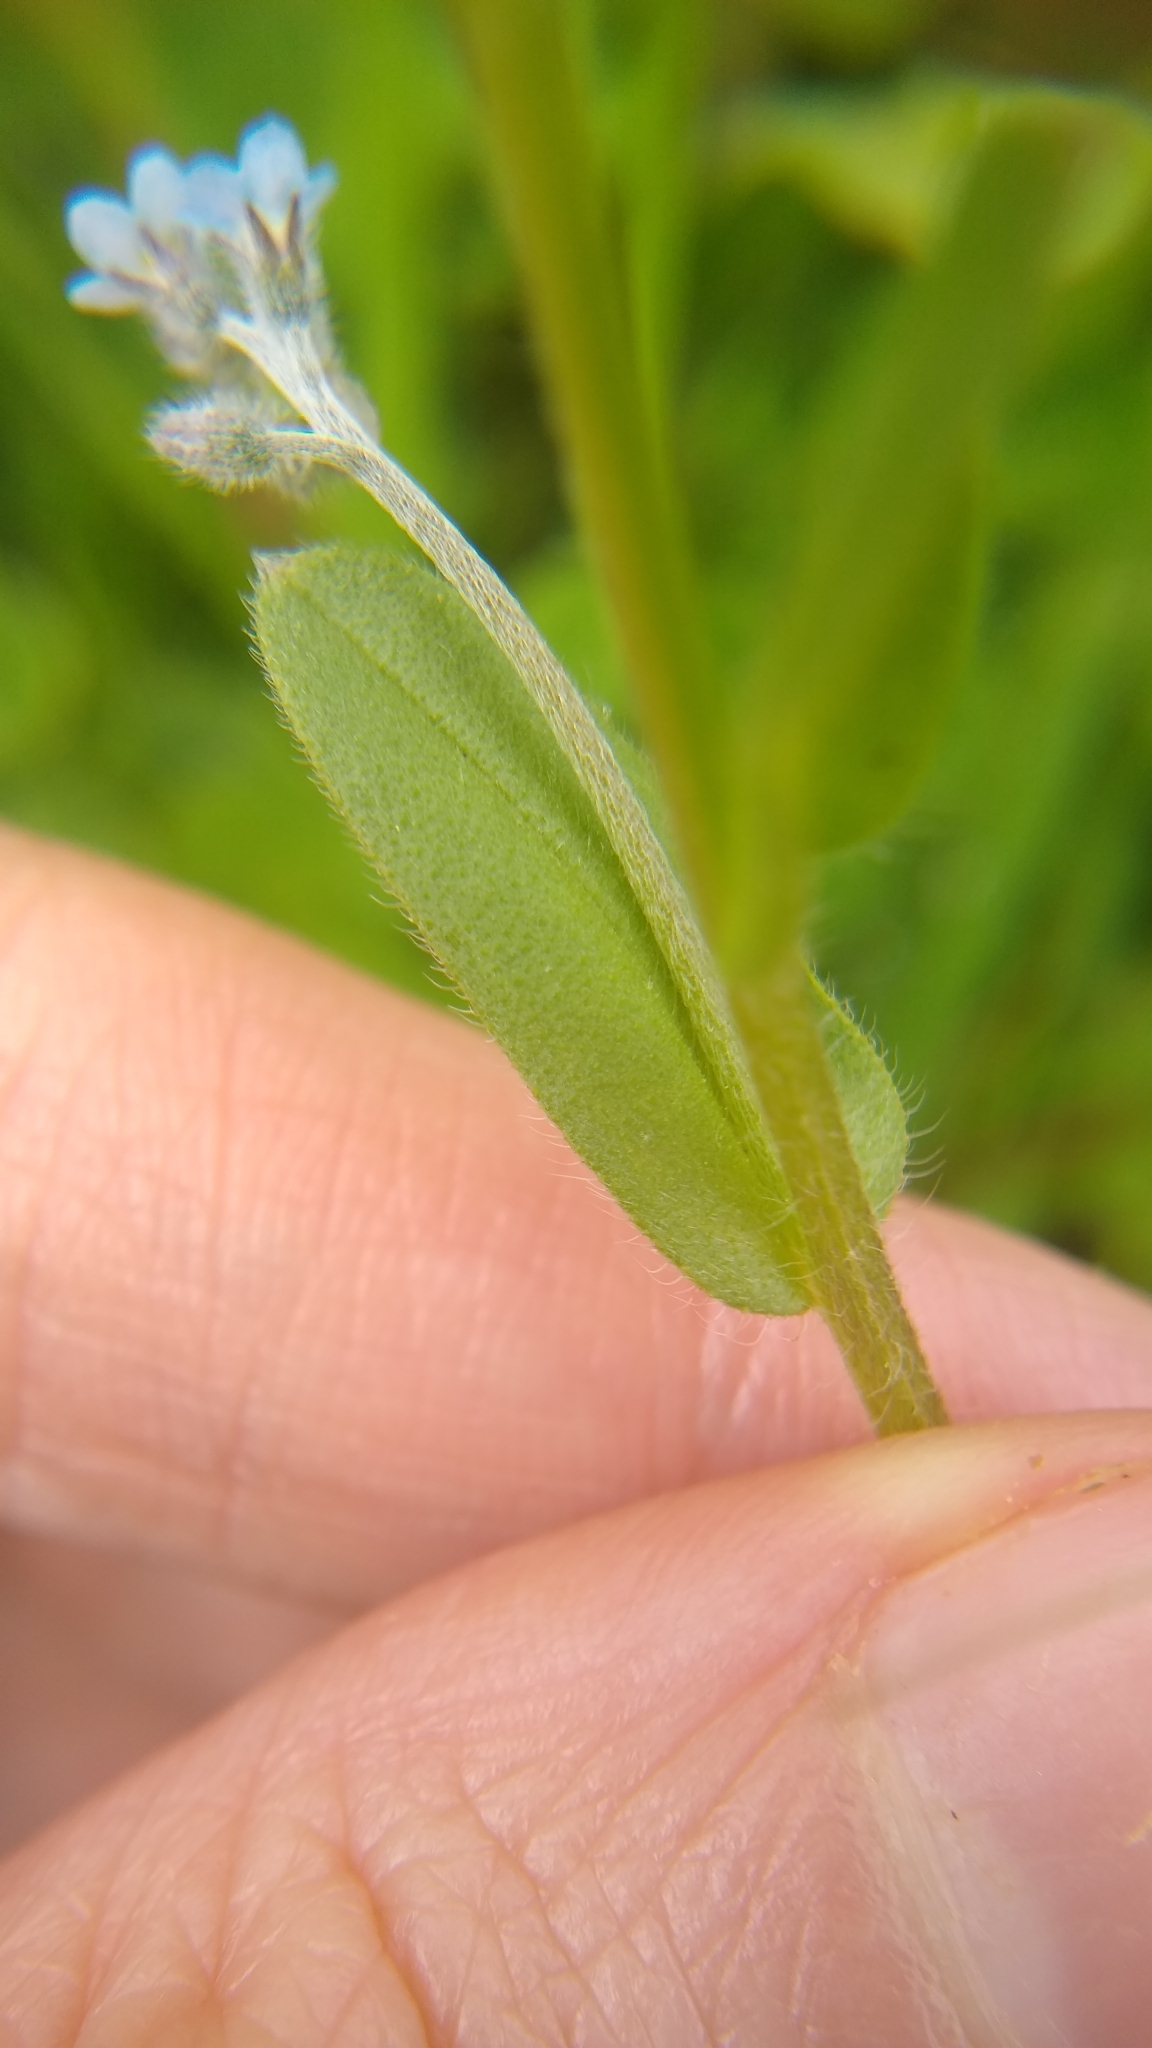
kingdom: Plantae
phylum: Tracheophyta
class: Magnoliopsida
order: Boraginales
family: Boraginaceae
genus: Myosotis
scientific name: Myosotis arvensis
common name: Field forget-me-not
